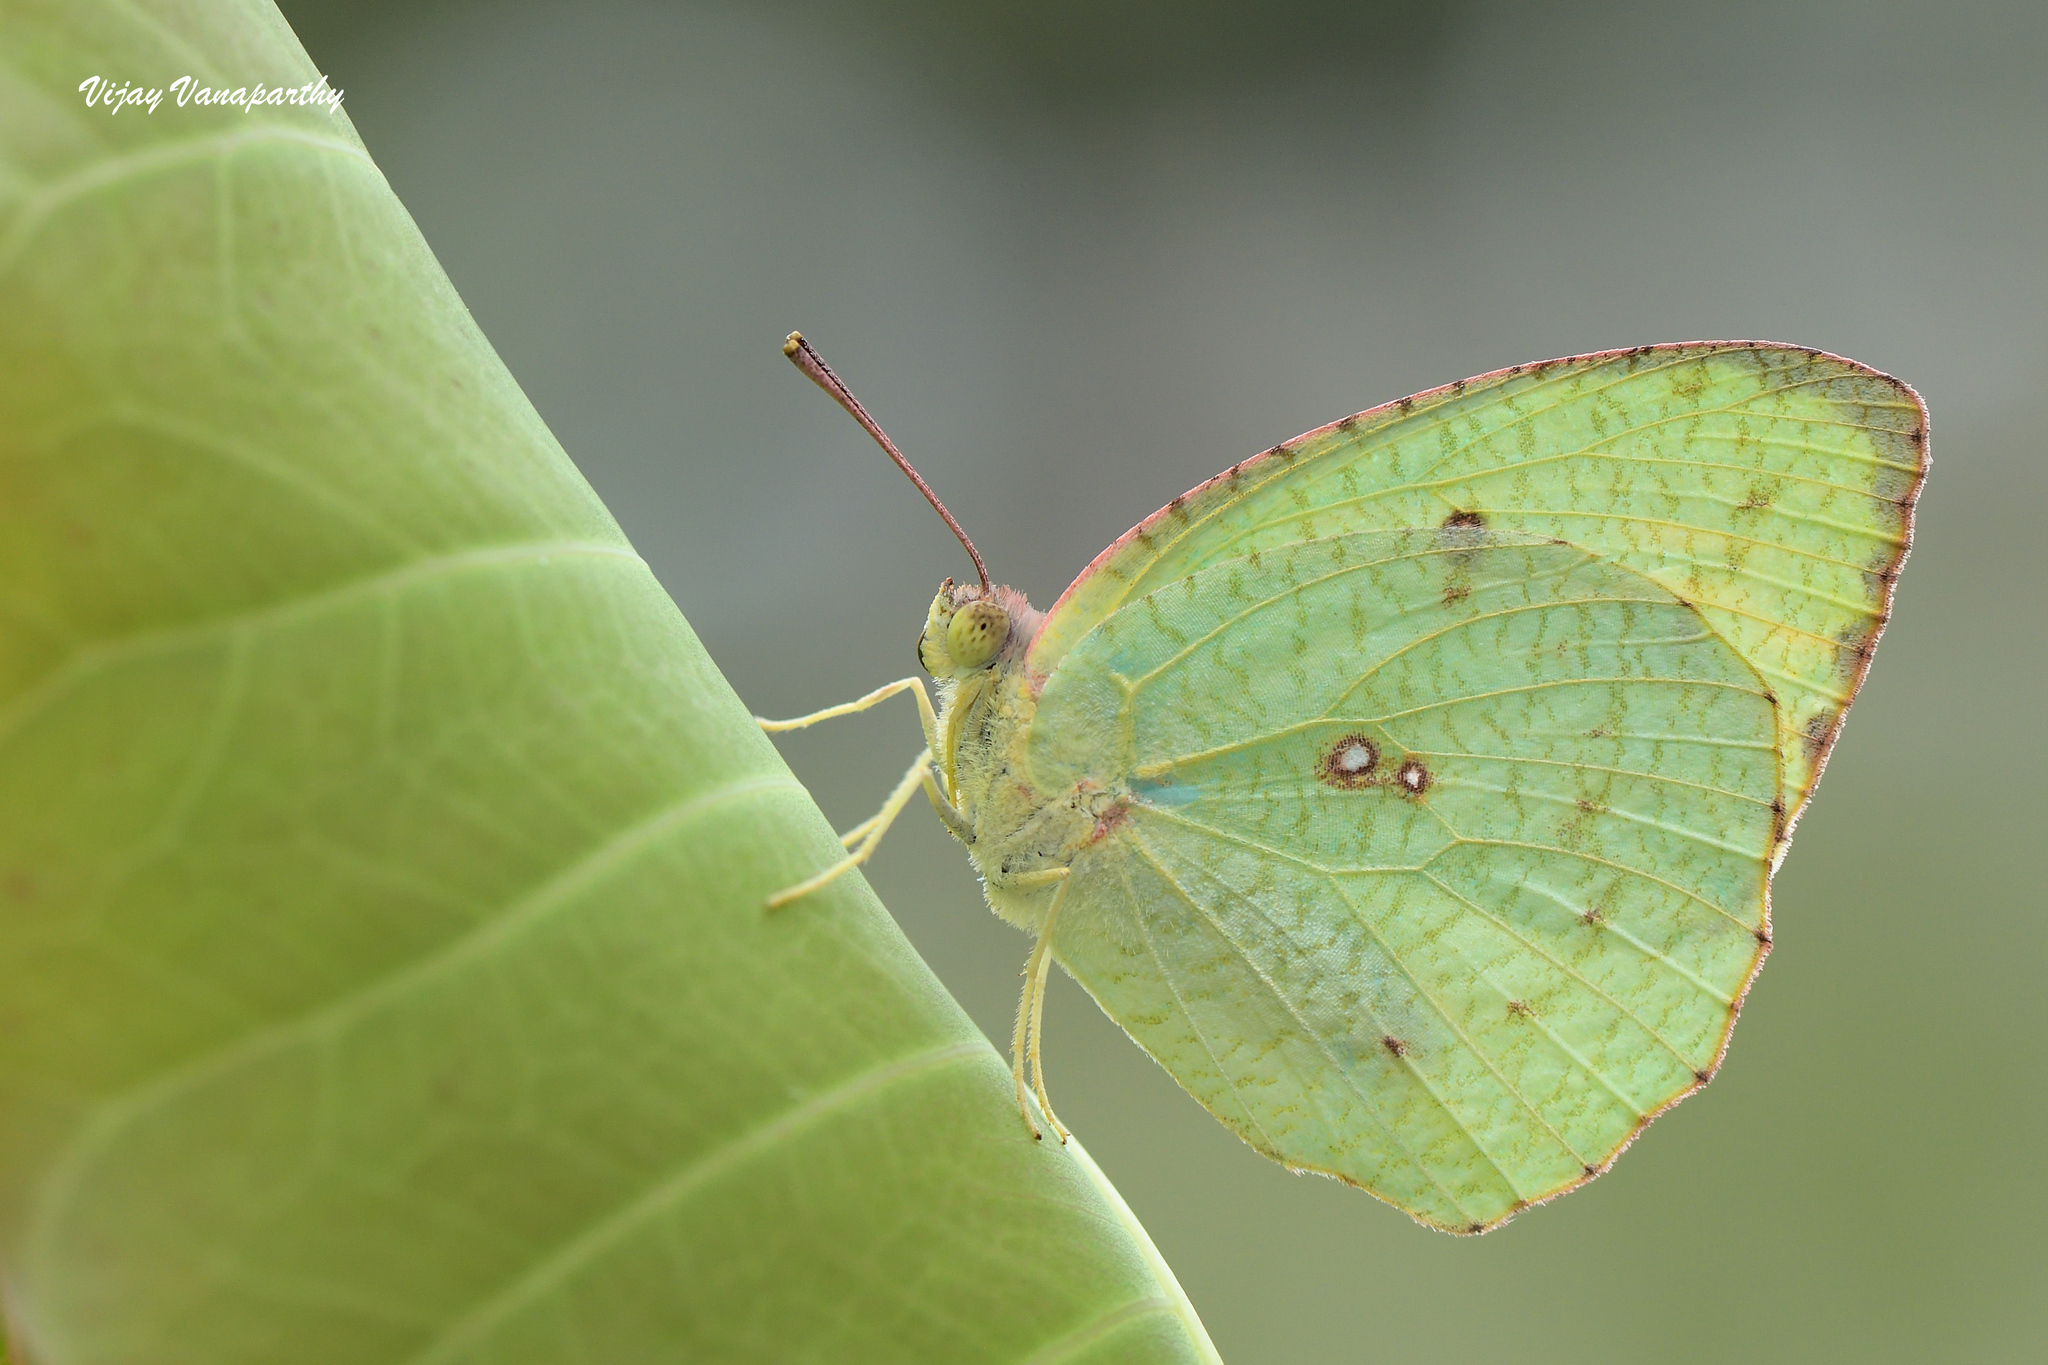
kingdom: Animalia
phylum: Arthropoda
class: Insecta
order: Lepidoptera
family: Pieridae
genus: Catopsilia
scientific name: Catopsilia pyranthe
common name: Mottled emigrant
